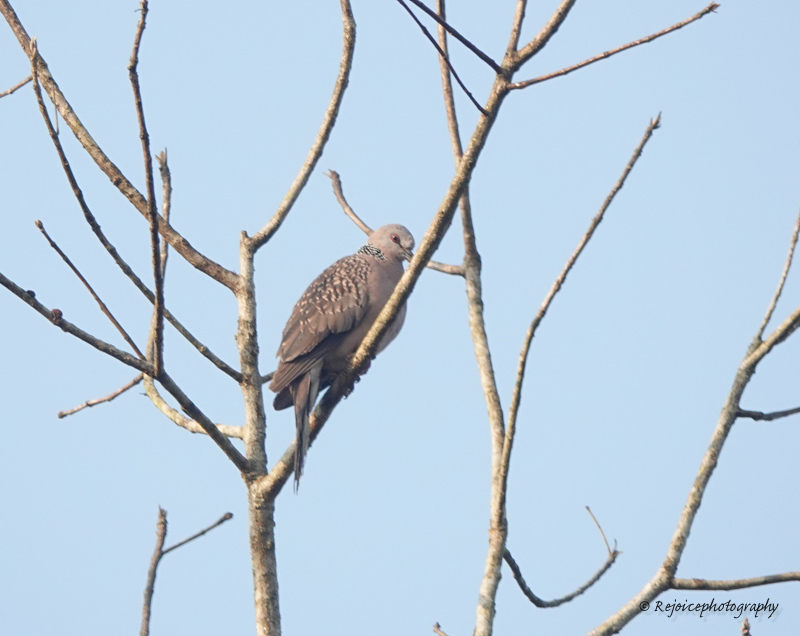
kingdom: Animalia
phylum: Chordata
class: Aves
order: Columbiformes
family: Columbidae
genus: Spilopelia
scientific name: Spilopelia chinensis
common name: Spotted dove
